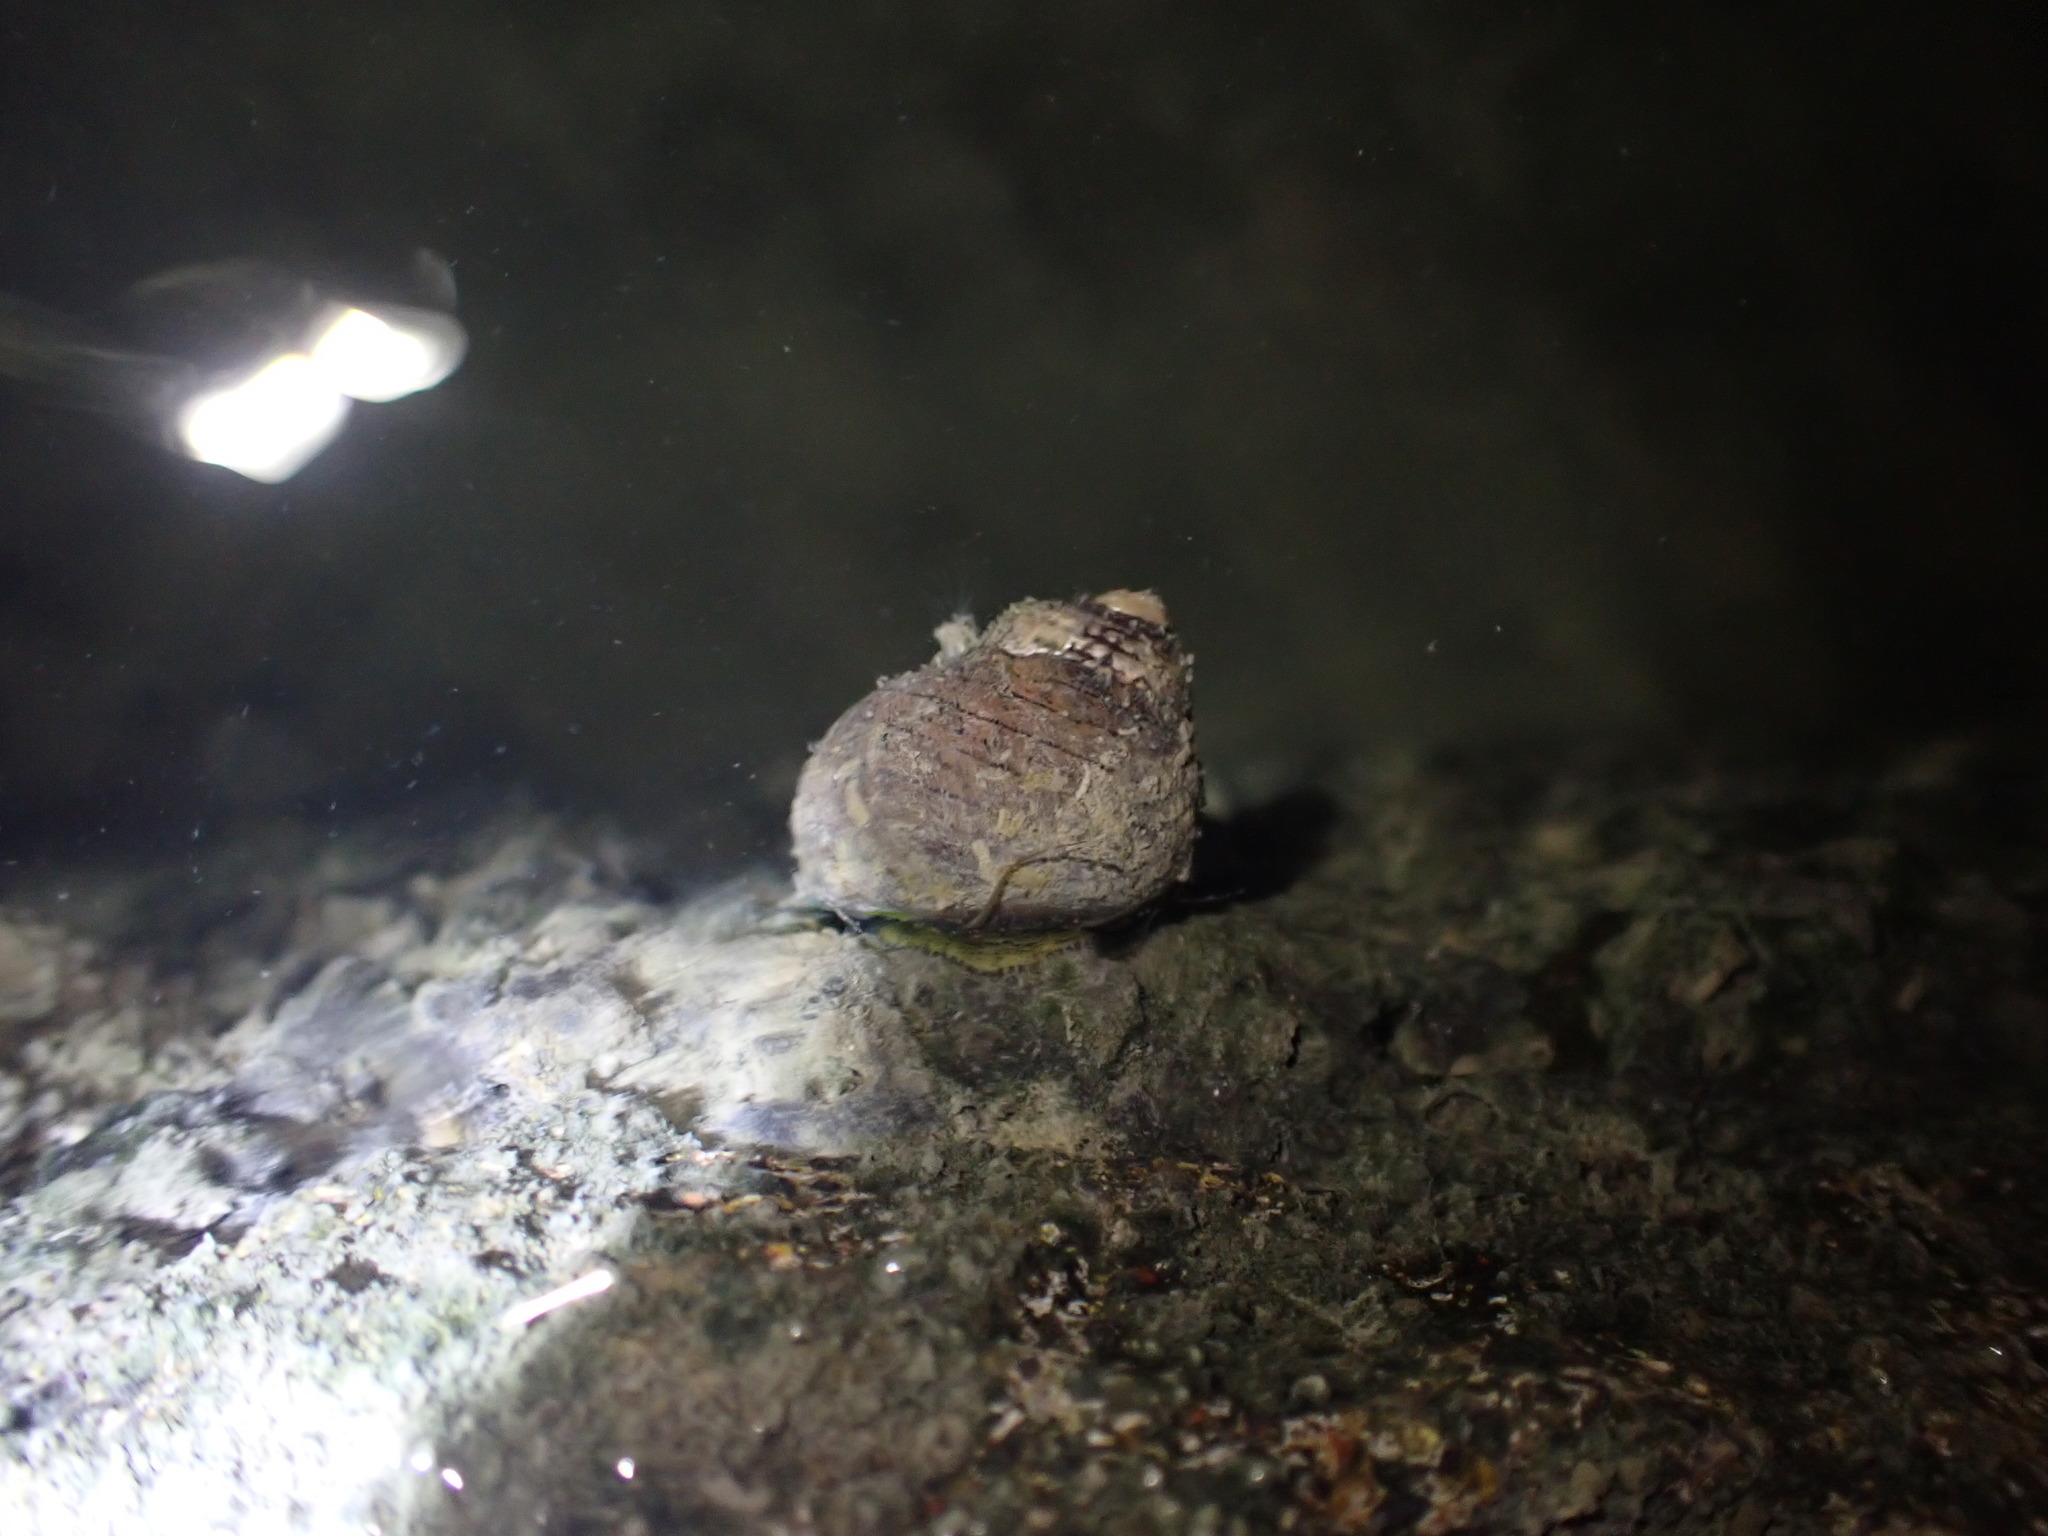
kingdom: Animalia
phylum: Mollusca
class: Gastropoda
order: Trochida
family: Trochidae
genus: Diloma
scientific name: Diloma aethiops
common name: Scorched monodont
